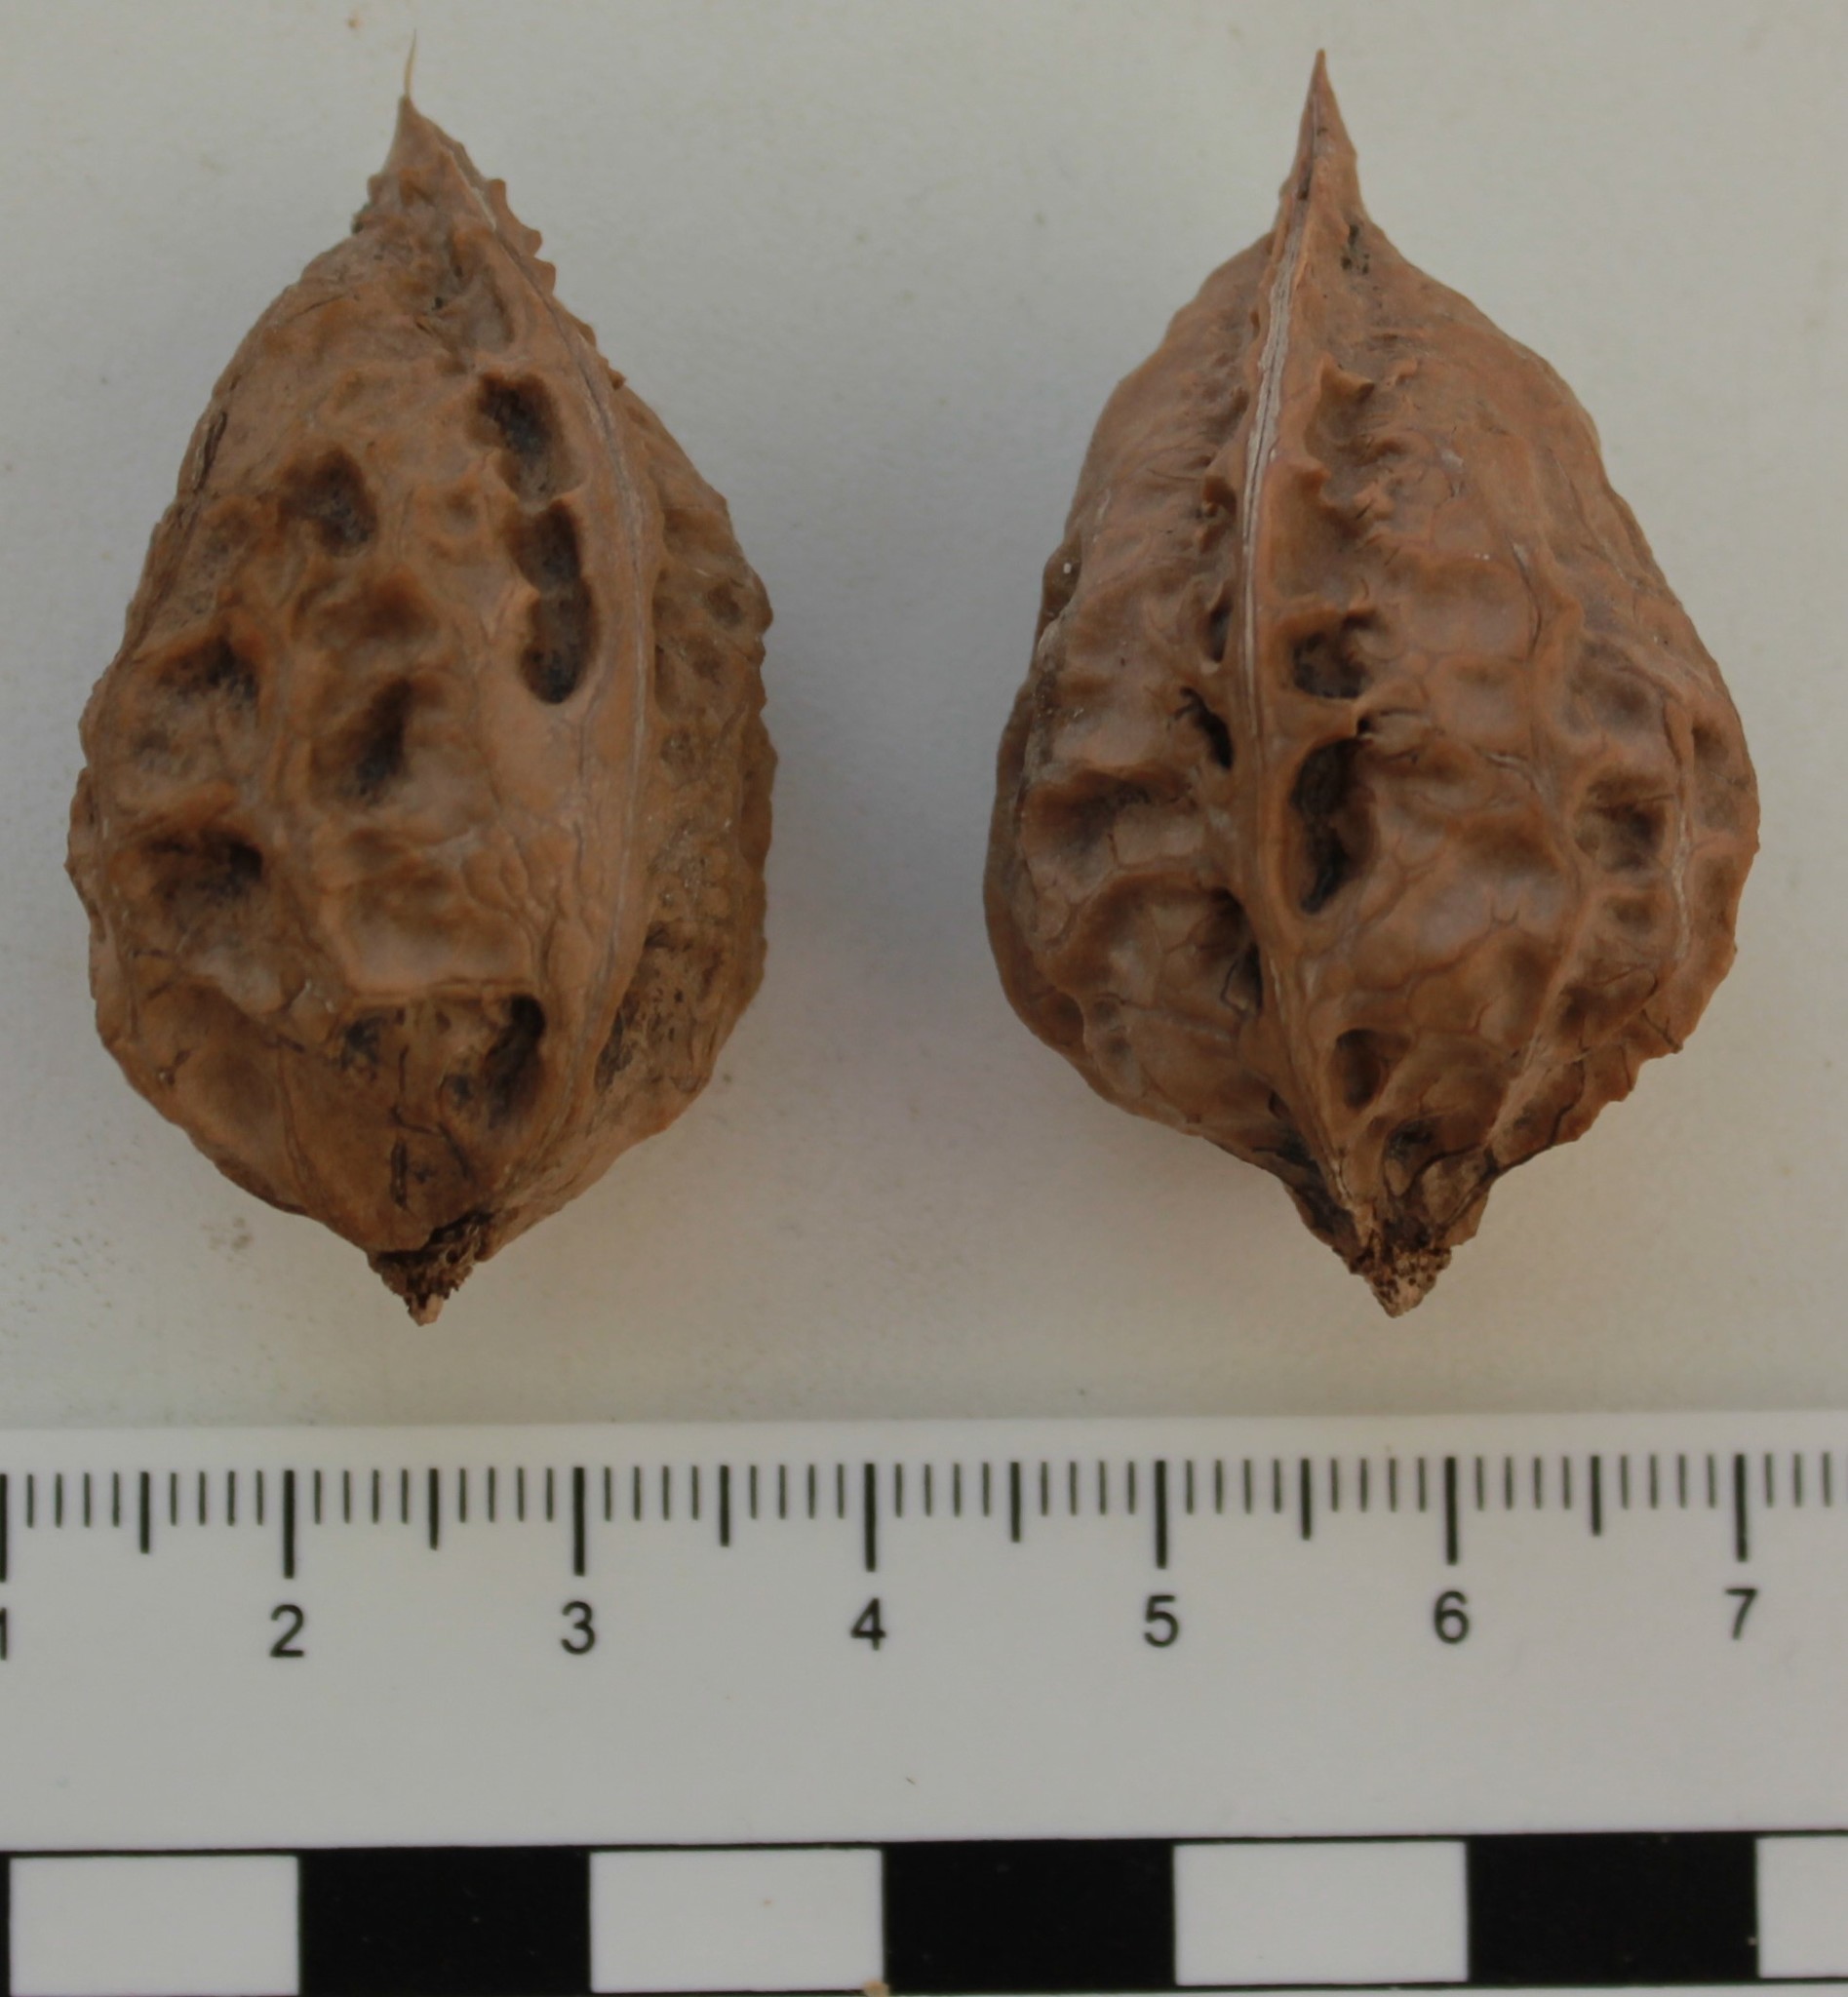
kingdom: Plantae
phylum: Tracheophyta
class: Magnoliopsida
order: Fagales
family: Juglandaceae
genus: Juglans
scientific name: Juglans mandshurica
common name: Manchurian walnut
